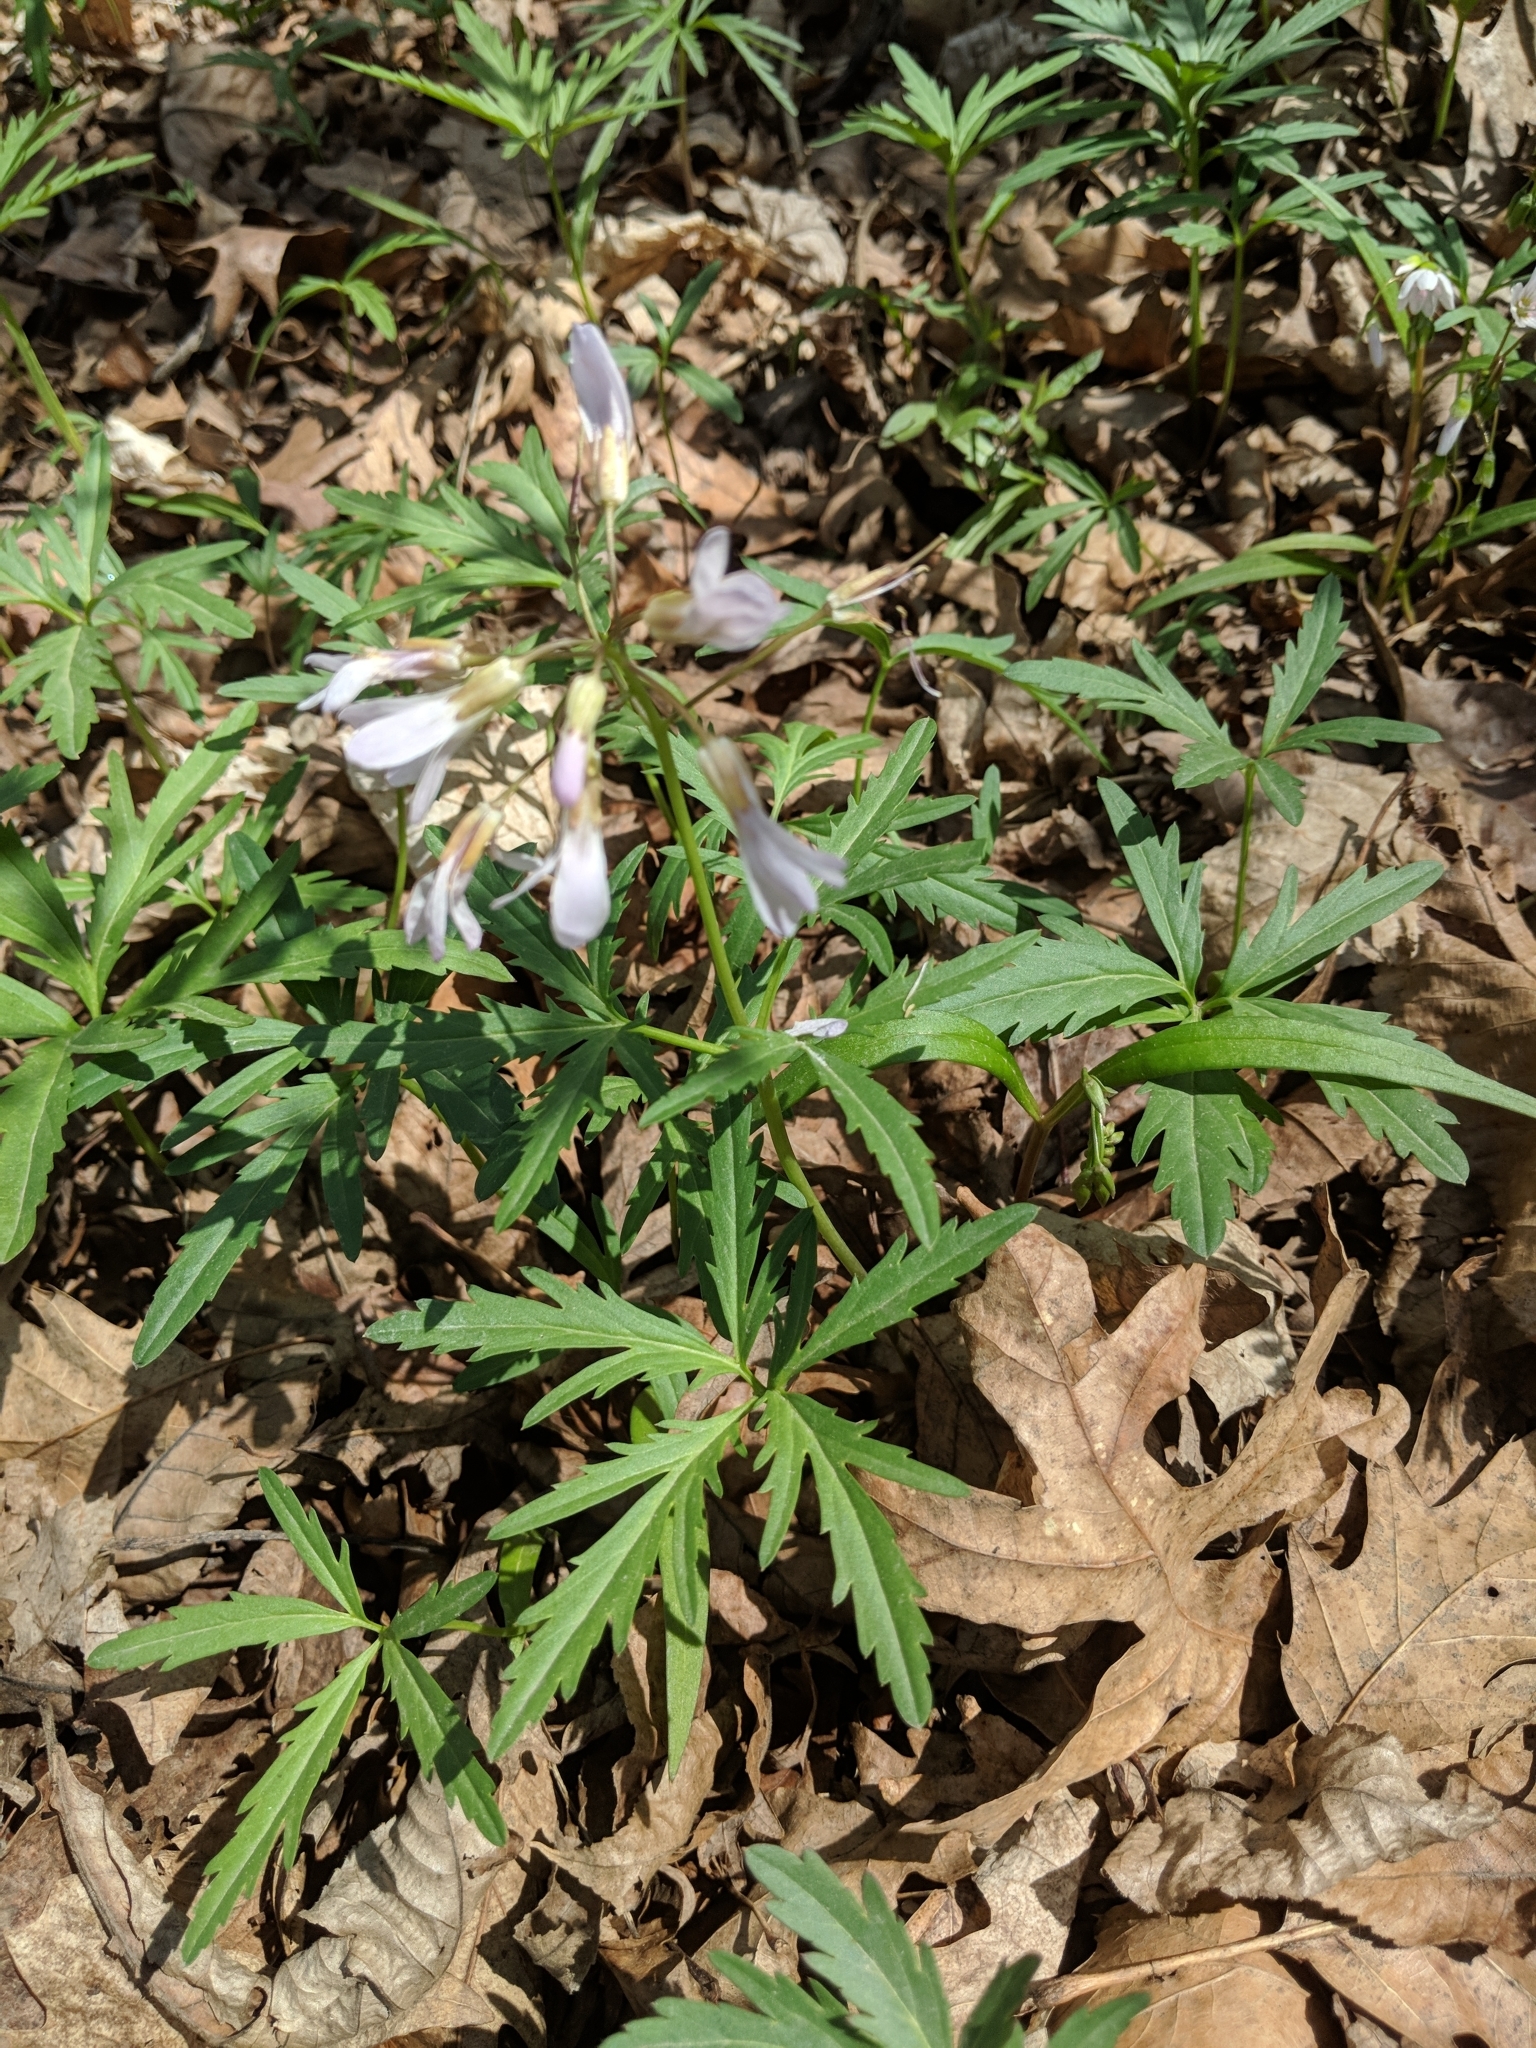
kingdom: Plantae
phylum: Tracheophyta
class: Magnoliopsida
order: Brassicales
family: Brassicaceae
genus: Cardamine
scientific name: Cardamine concatenata
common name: Cut-leaf toothcup
